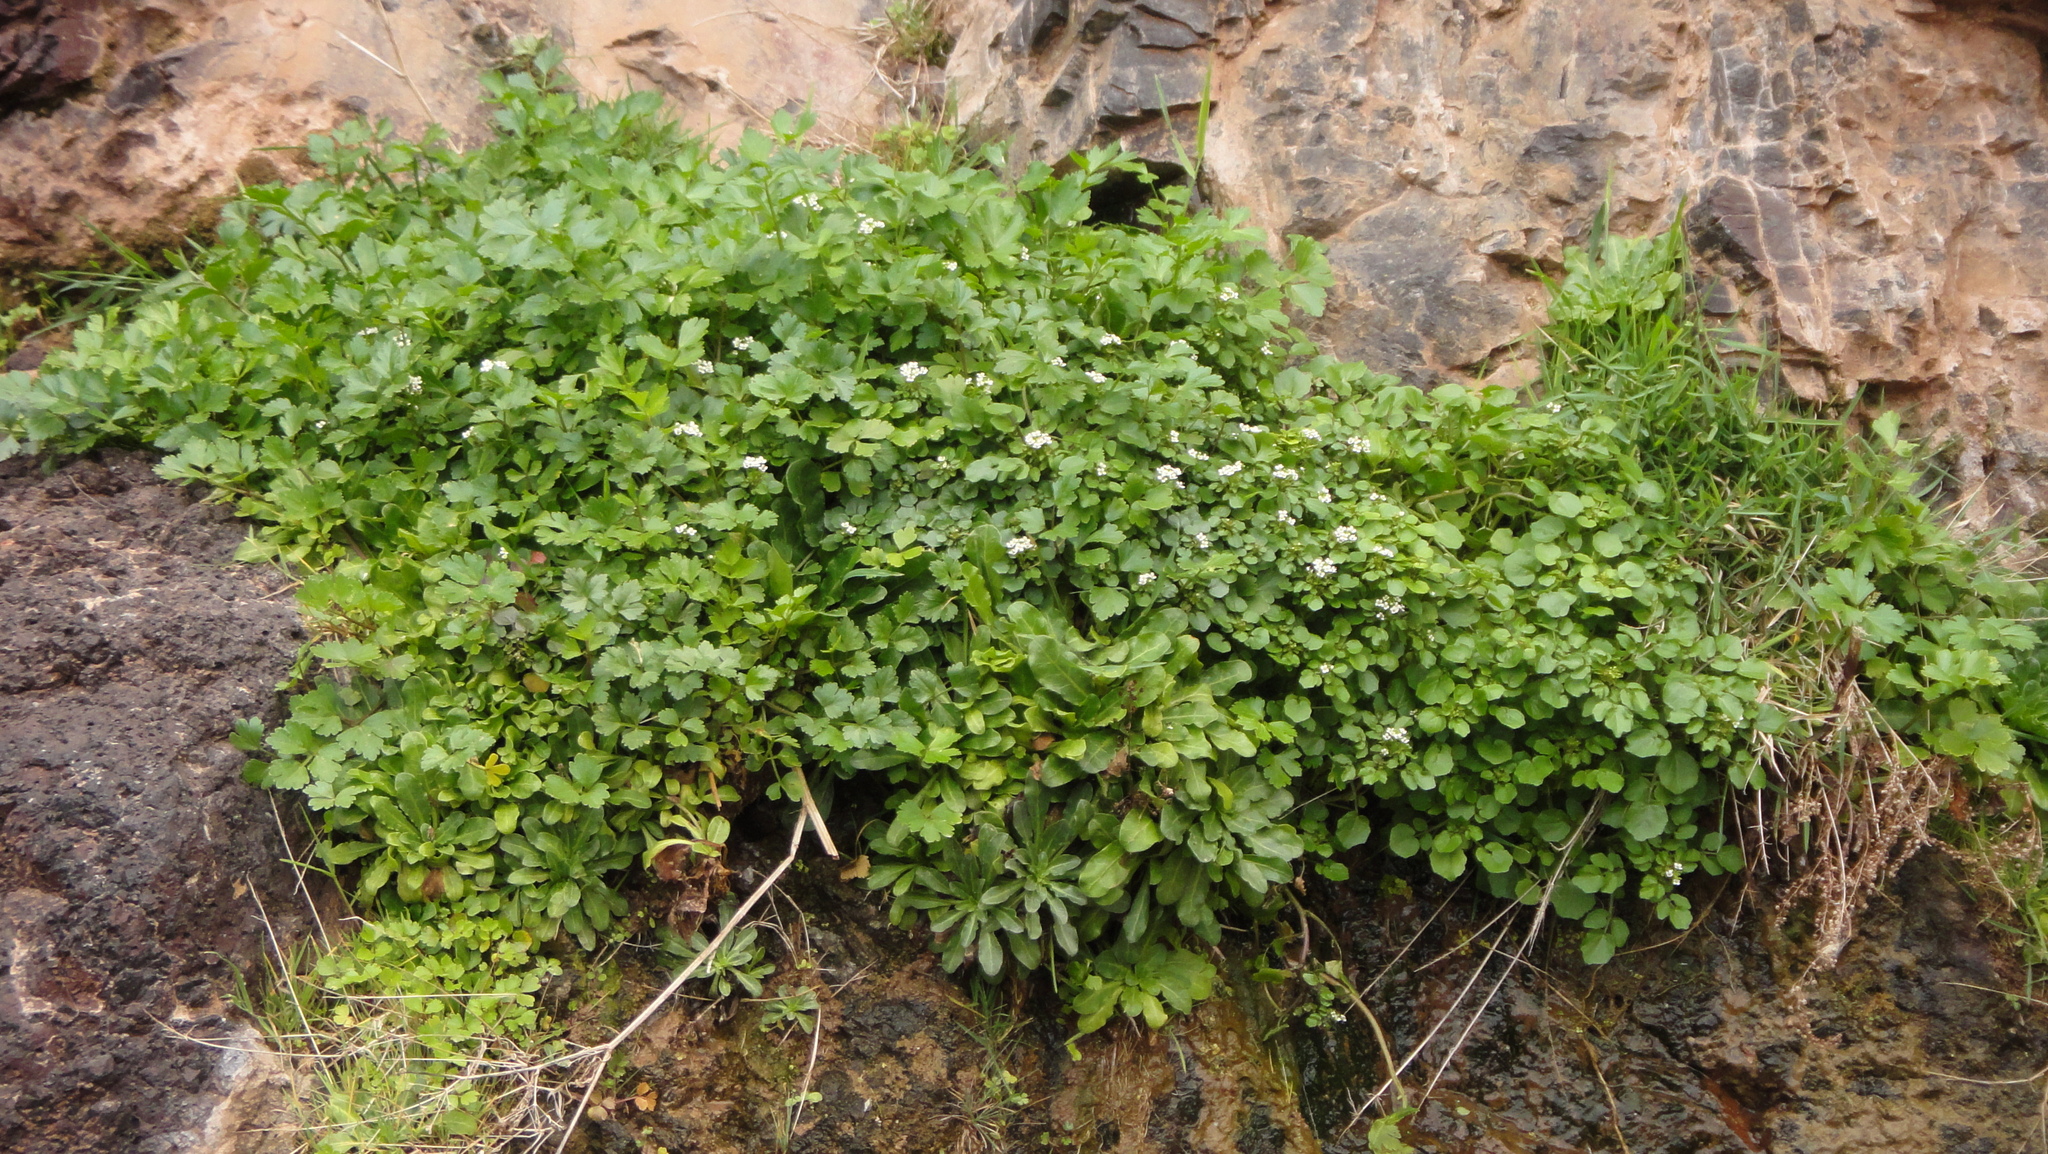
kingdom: Plantae
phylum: Tracheophyta
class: Magnoliopsida
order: Brassicales
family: Brassicaceae
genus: Nasturtium
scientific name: Nasturtium officinale
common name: Watercress
